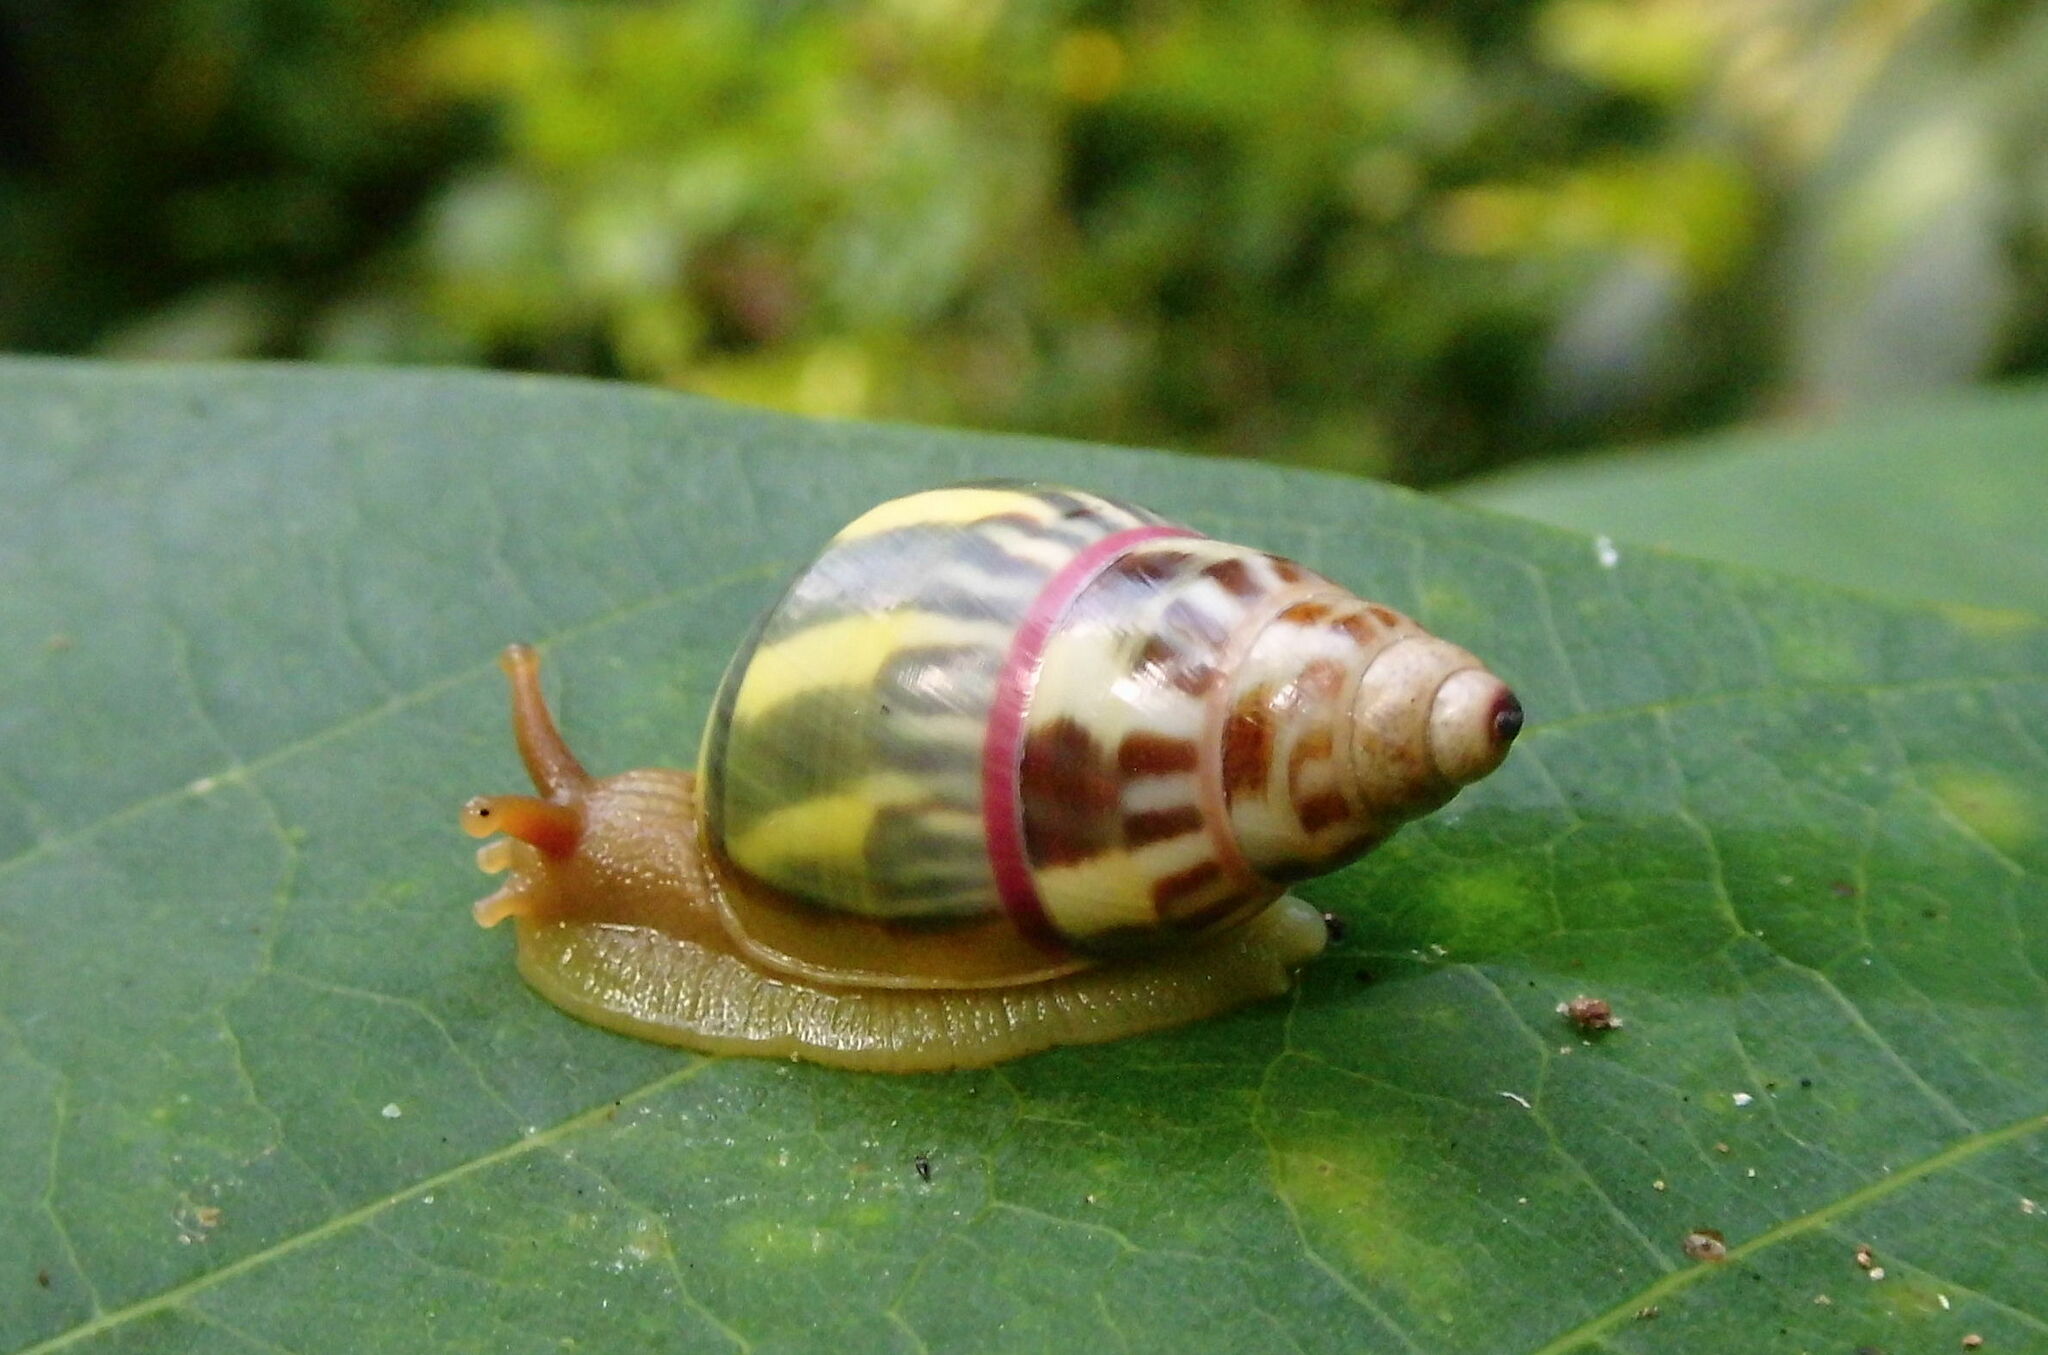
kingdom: Animalia
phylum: Mollusca
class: Gastropoda
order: Stylommatophora
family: Camaenidae
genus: Amphidromus
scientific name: Amphidromus furcillatus
